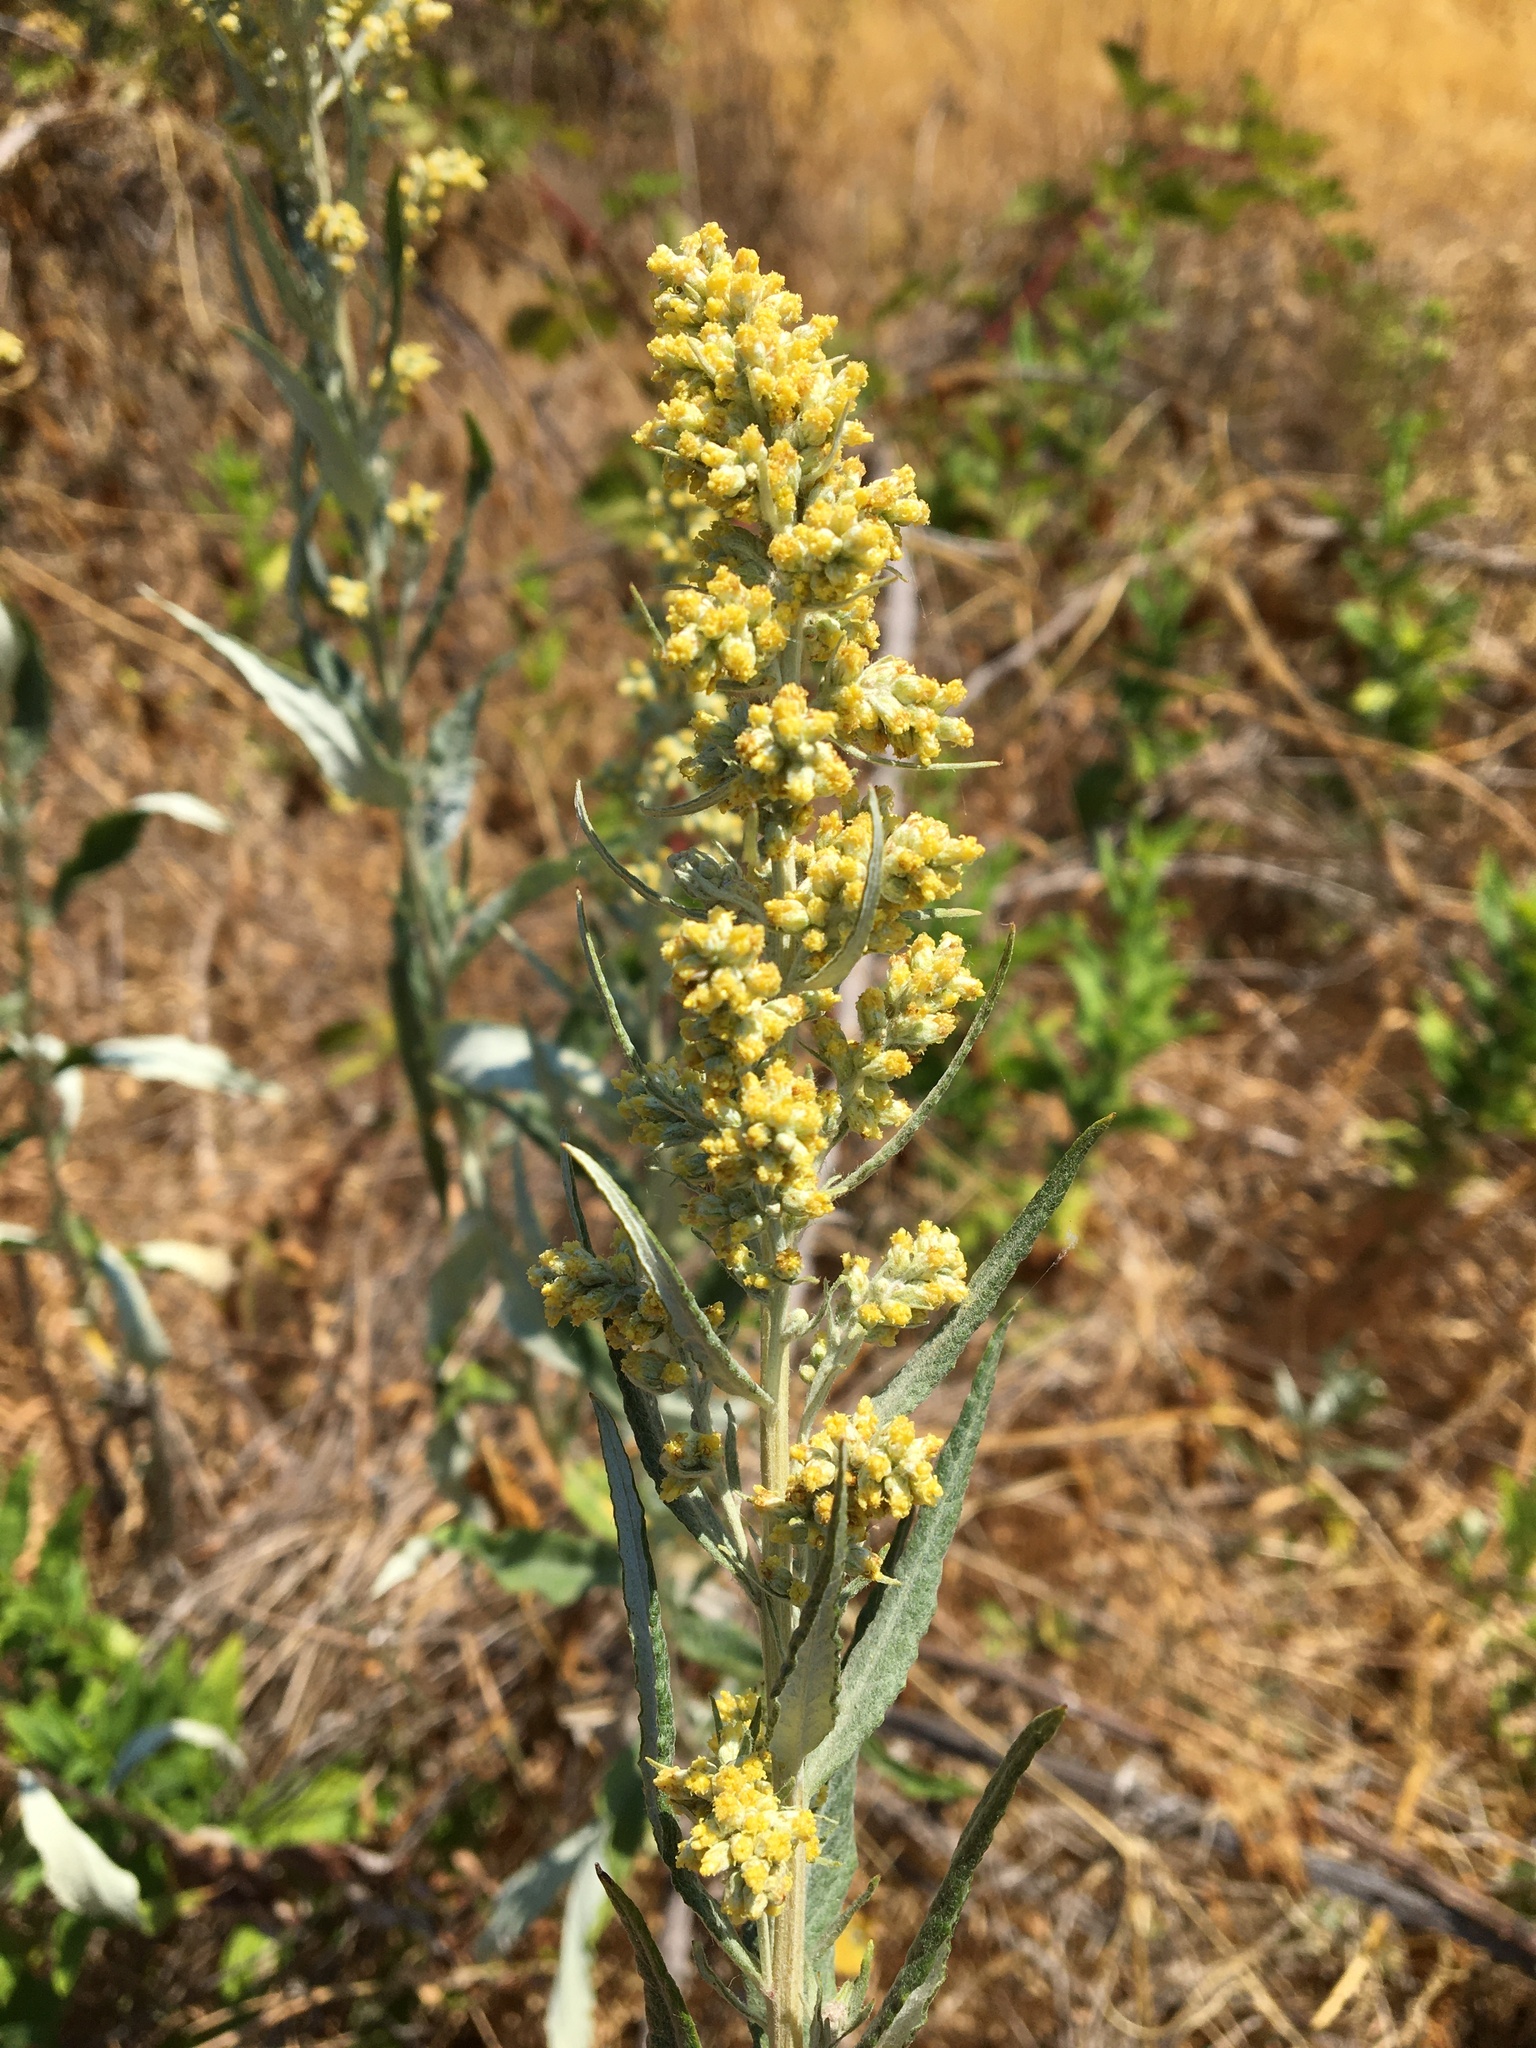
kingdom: Plantae
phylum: Tracheophyta
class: Magnoliopsida
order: Asterales
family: Asteraceae
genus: Artemisia
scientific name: Artemisia douglasiana
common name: Northwest mugwort
